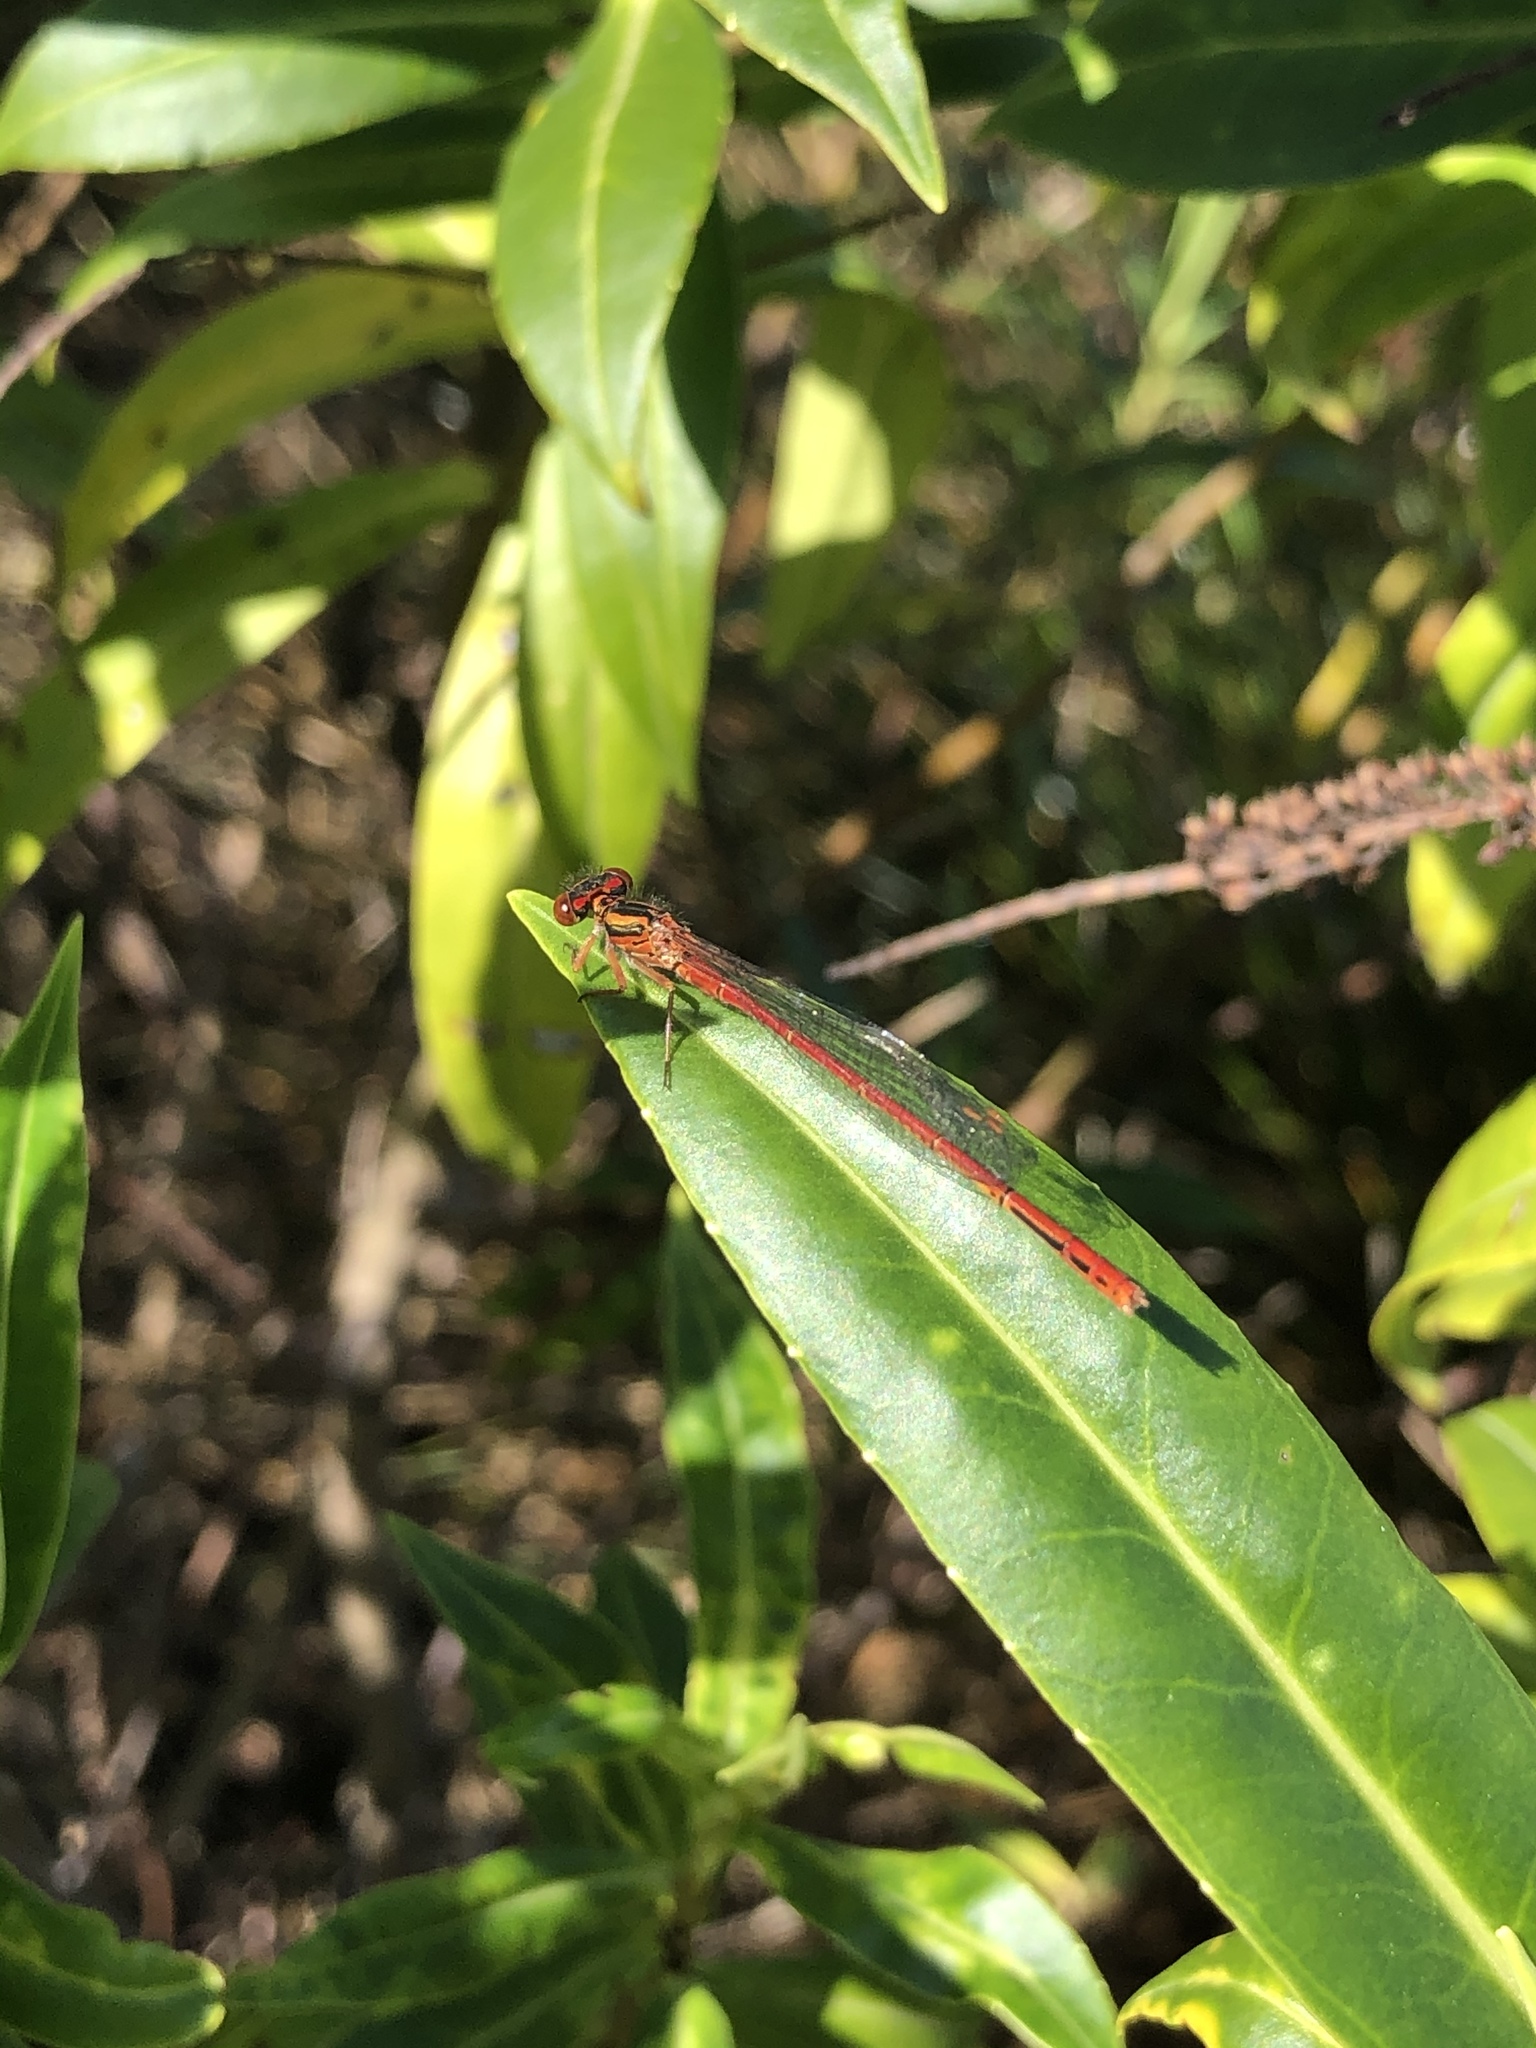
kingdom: Animalia
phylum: Arthropoda
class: Insecta
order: Odonata
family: Coenagrionidae
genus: Xanthocnemis
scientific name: Xanthocnemis zealandica
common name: Common redcoat damselfly
